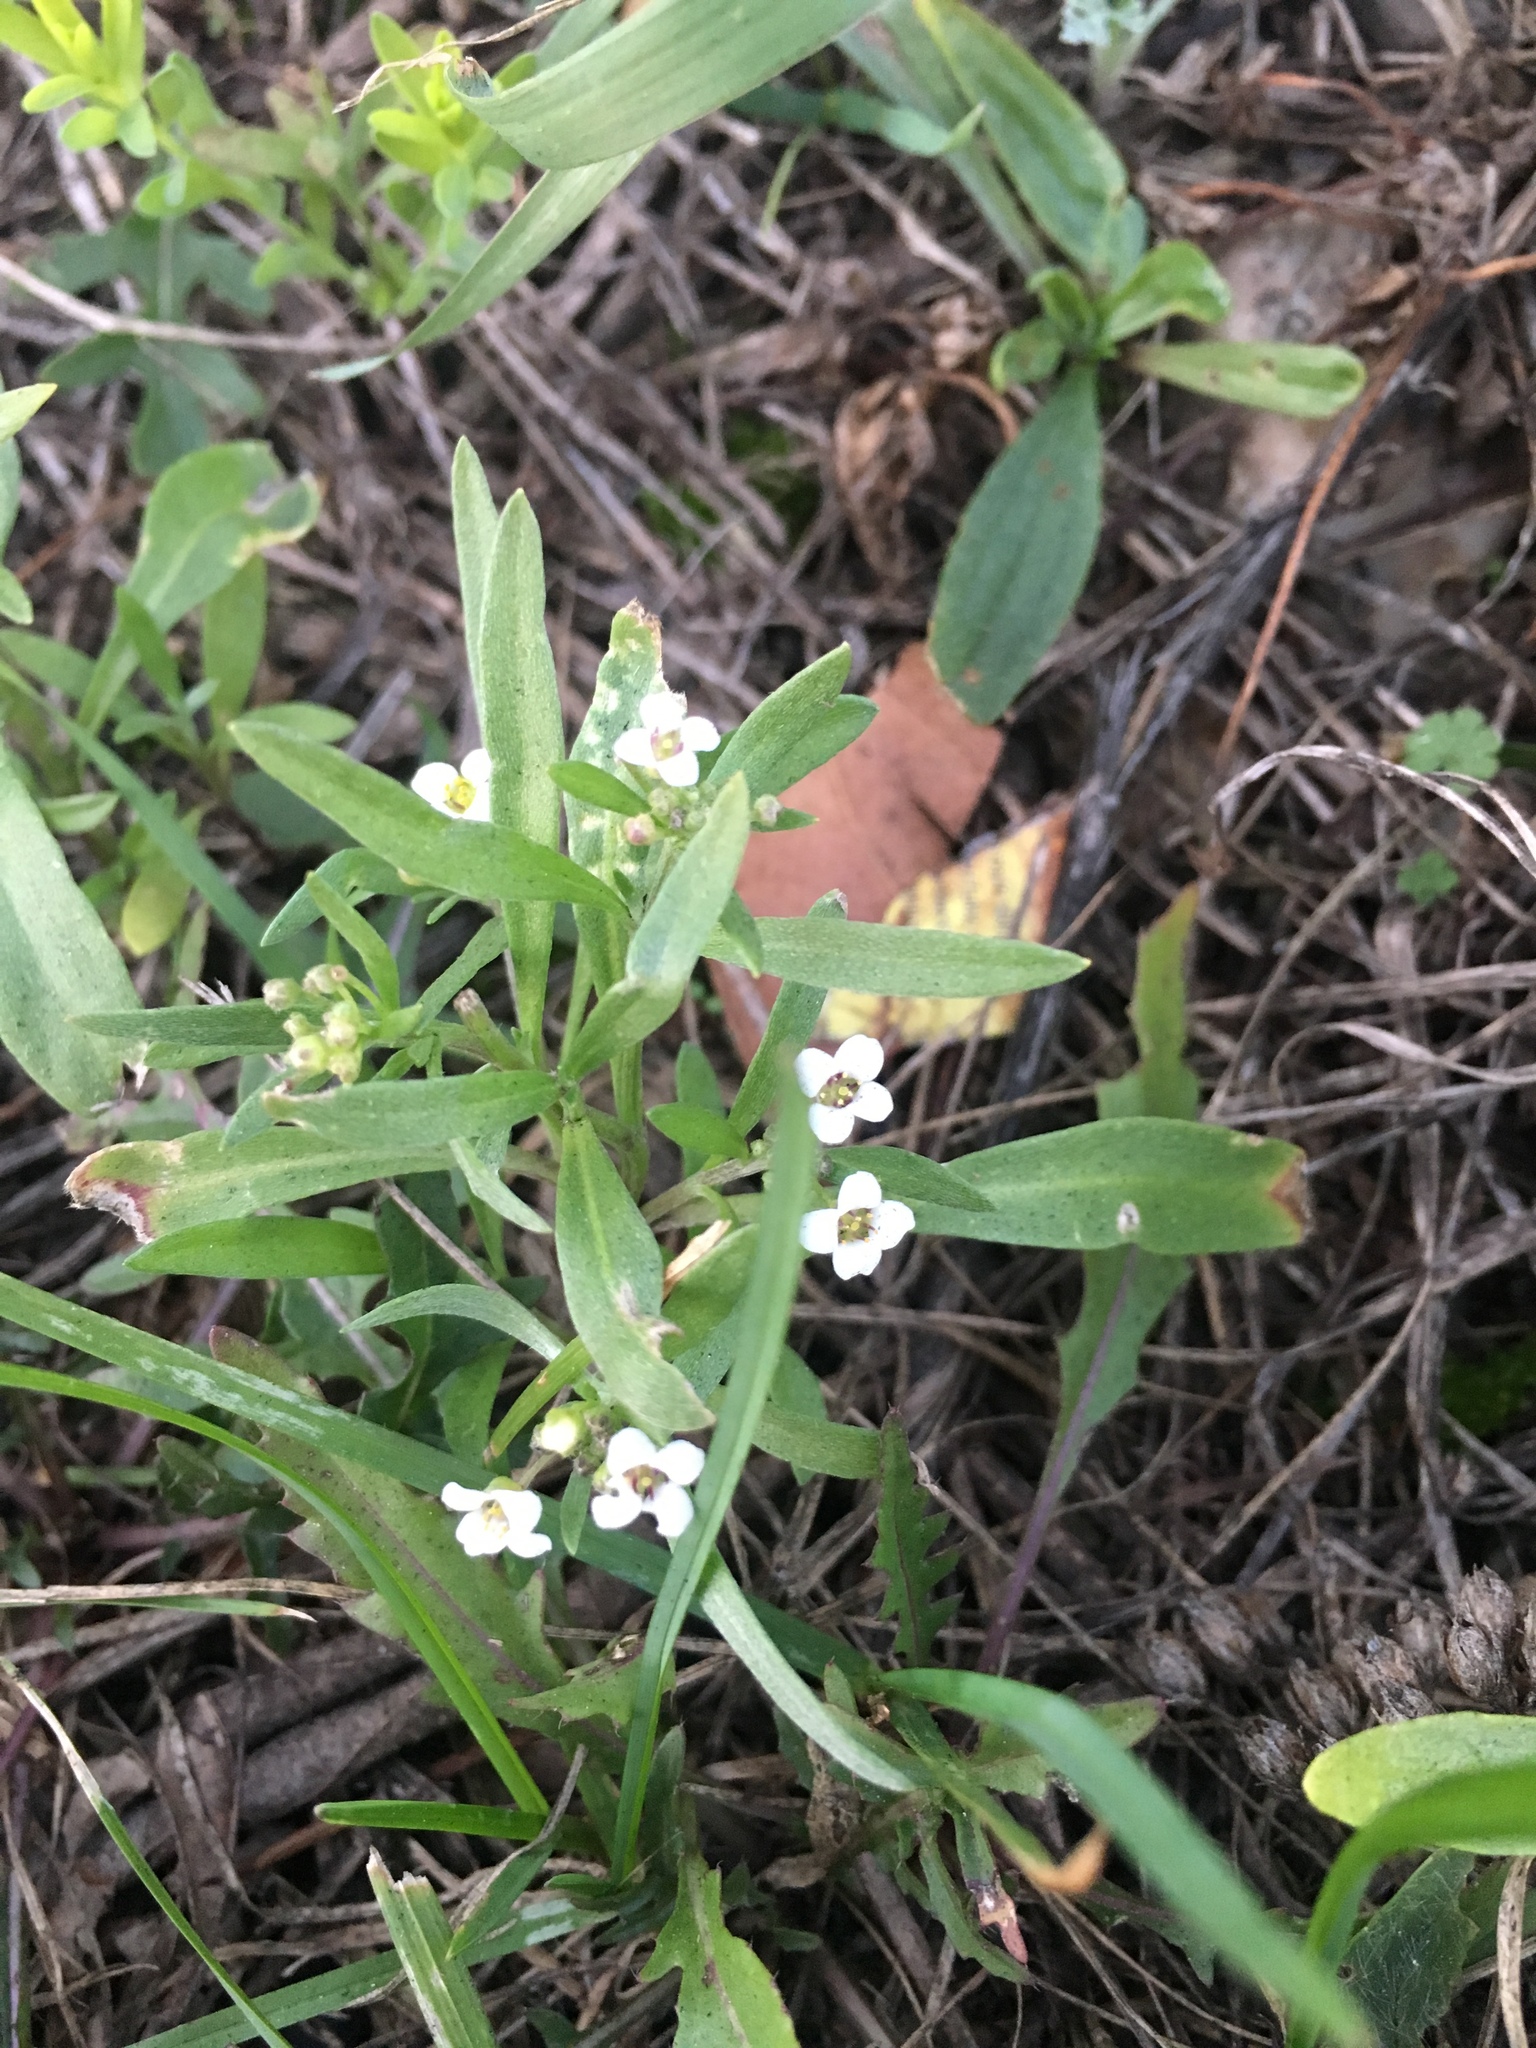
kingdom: Plantae
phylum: Tracheophyta
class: Magnoliopsida
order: Brassicales
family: Brassicaceae
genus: Lobularia
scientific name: Lobularia maritima
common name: Sweet alison
